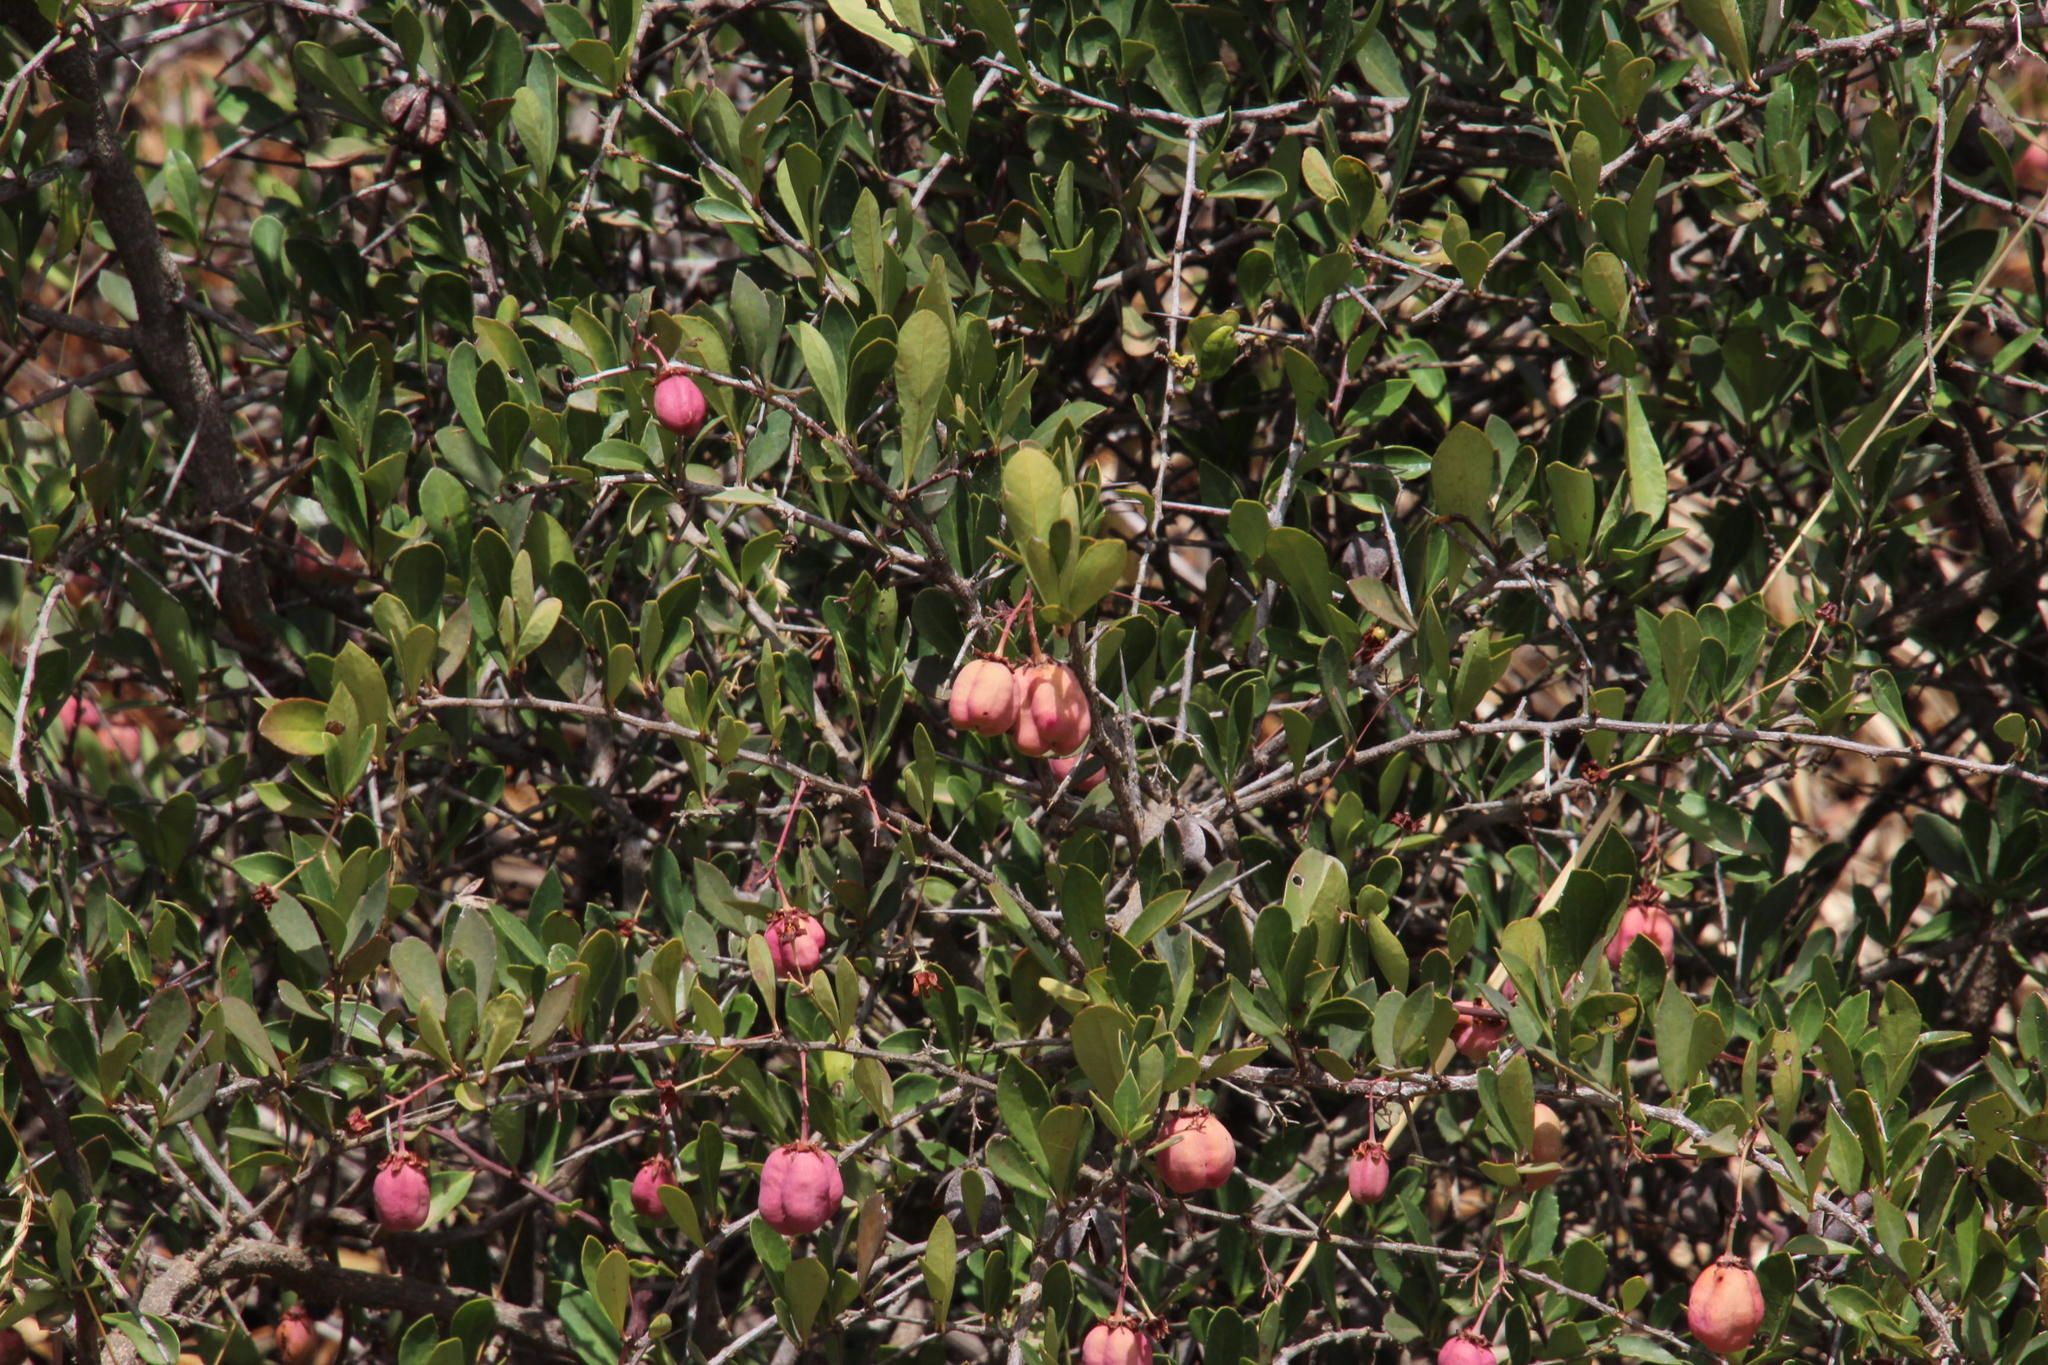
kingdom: Plantae
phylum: Tracheophyta
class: Magnoliopsida
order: Celastrales
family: Celastraceae
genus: Putterlickia
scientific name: Putterlickia pyracantha
